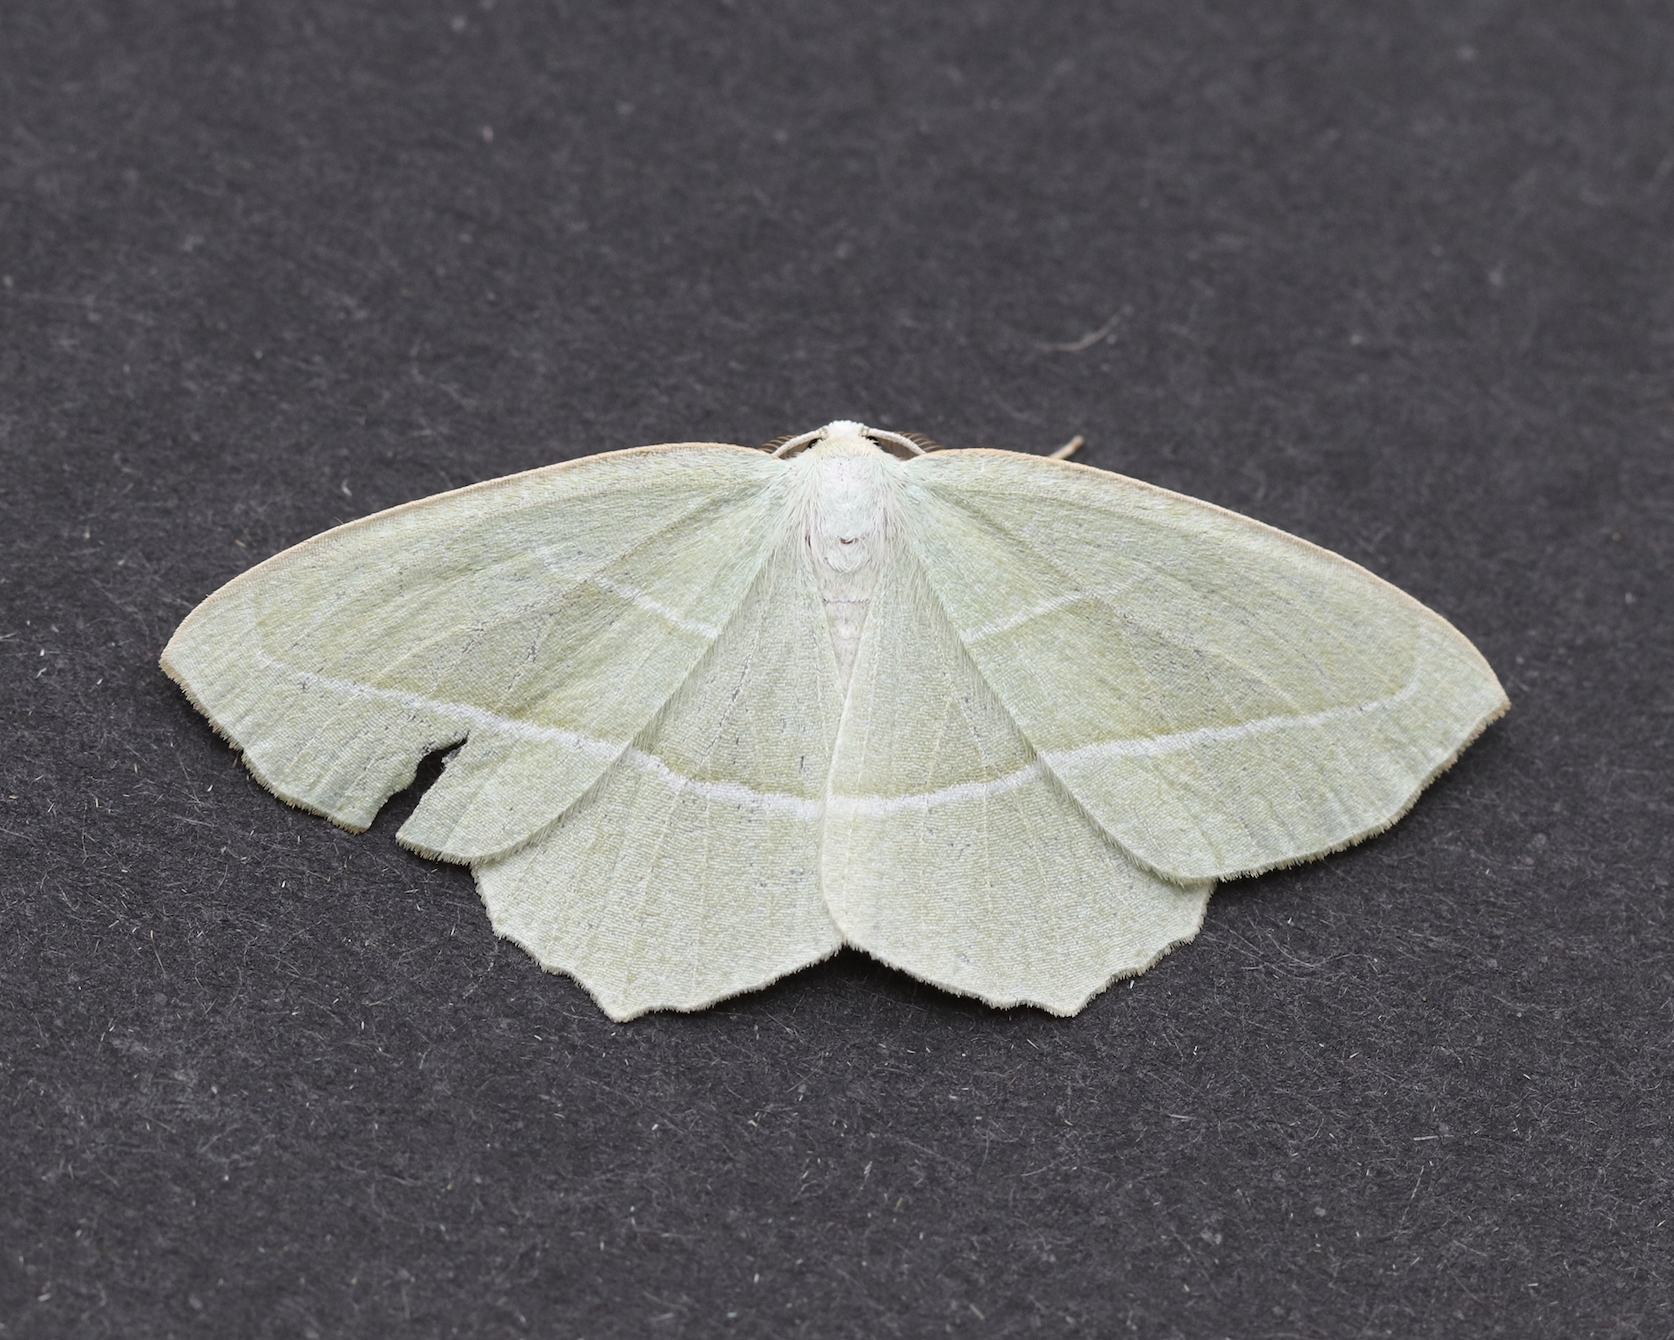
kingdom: Animalia
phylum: Arthropoda
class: Insecta
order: Lepidoptera
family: Geometridae
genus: Campaea
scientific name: Campaea perlata
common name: Fringed looper
